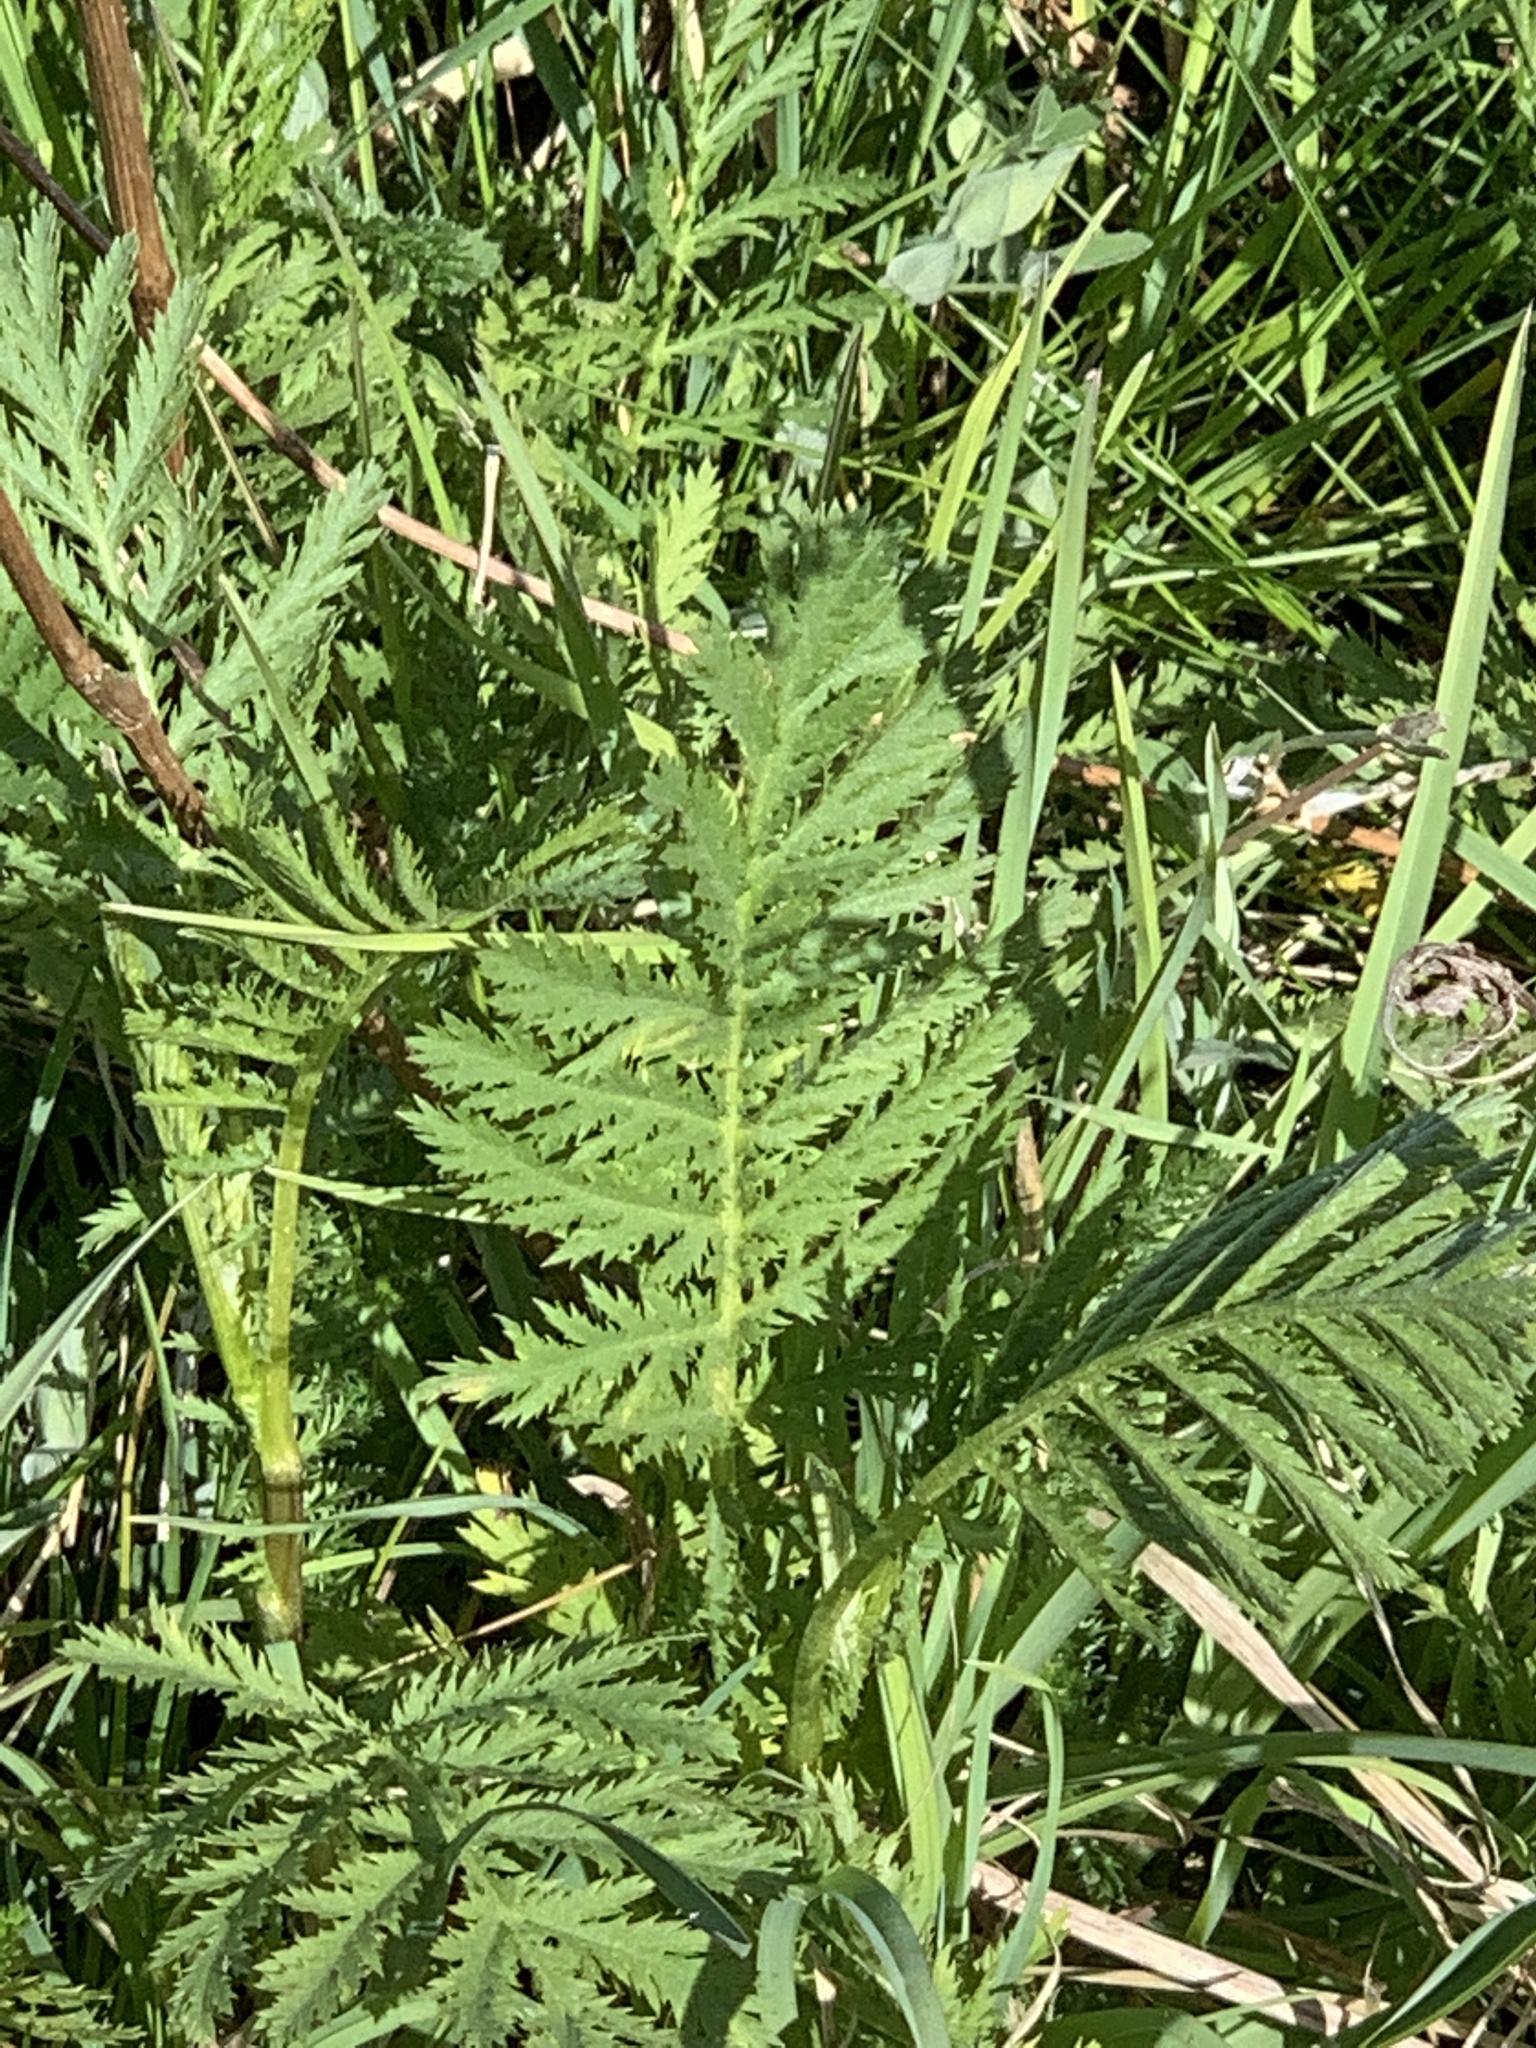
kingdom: Plantae
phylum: Tracheophyta
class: Magnoliopsida
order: Asterales
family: Asteraceae
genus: Tanacetum
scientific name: Tanacetum vulgare
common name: Common tansy
